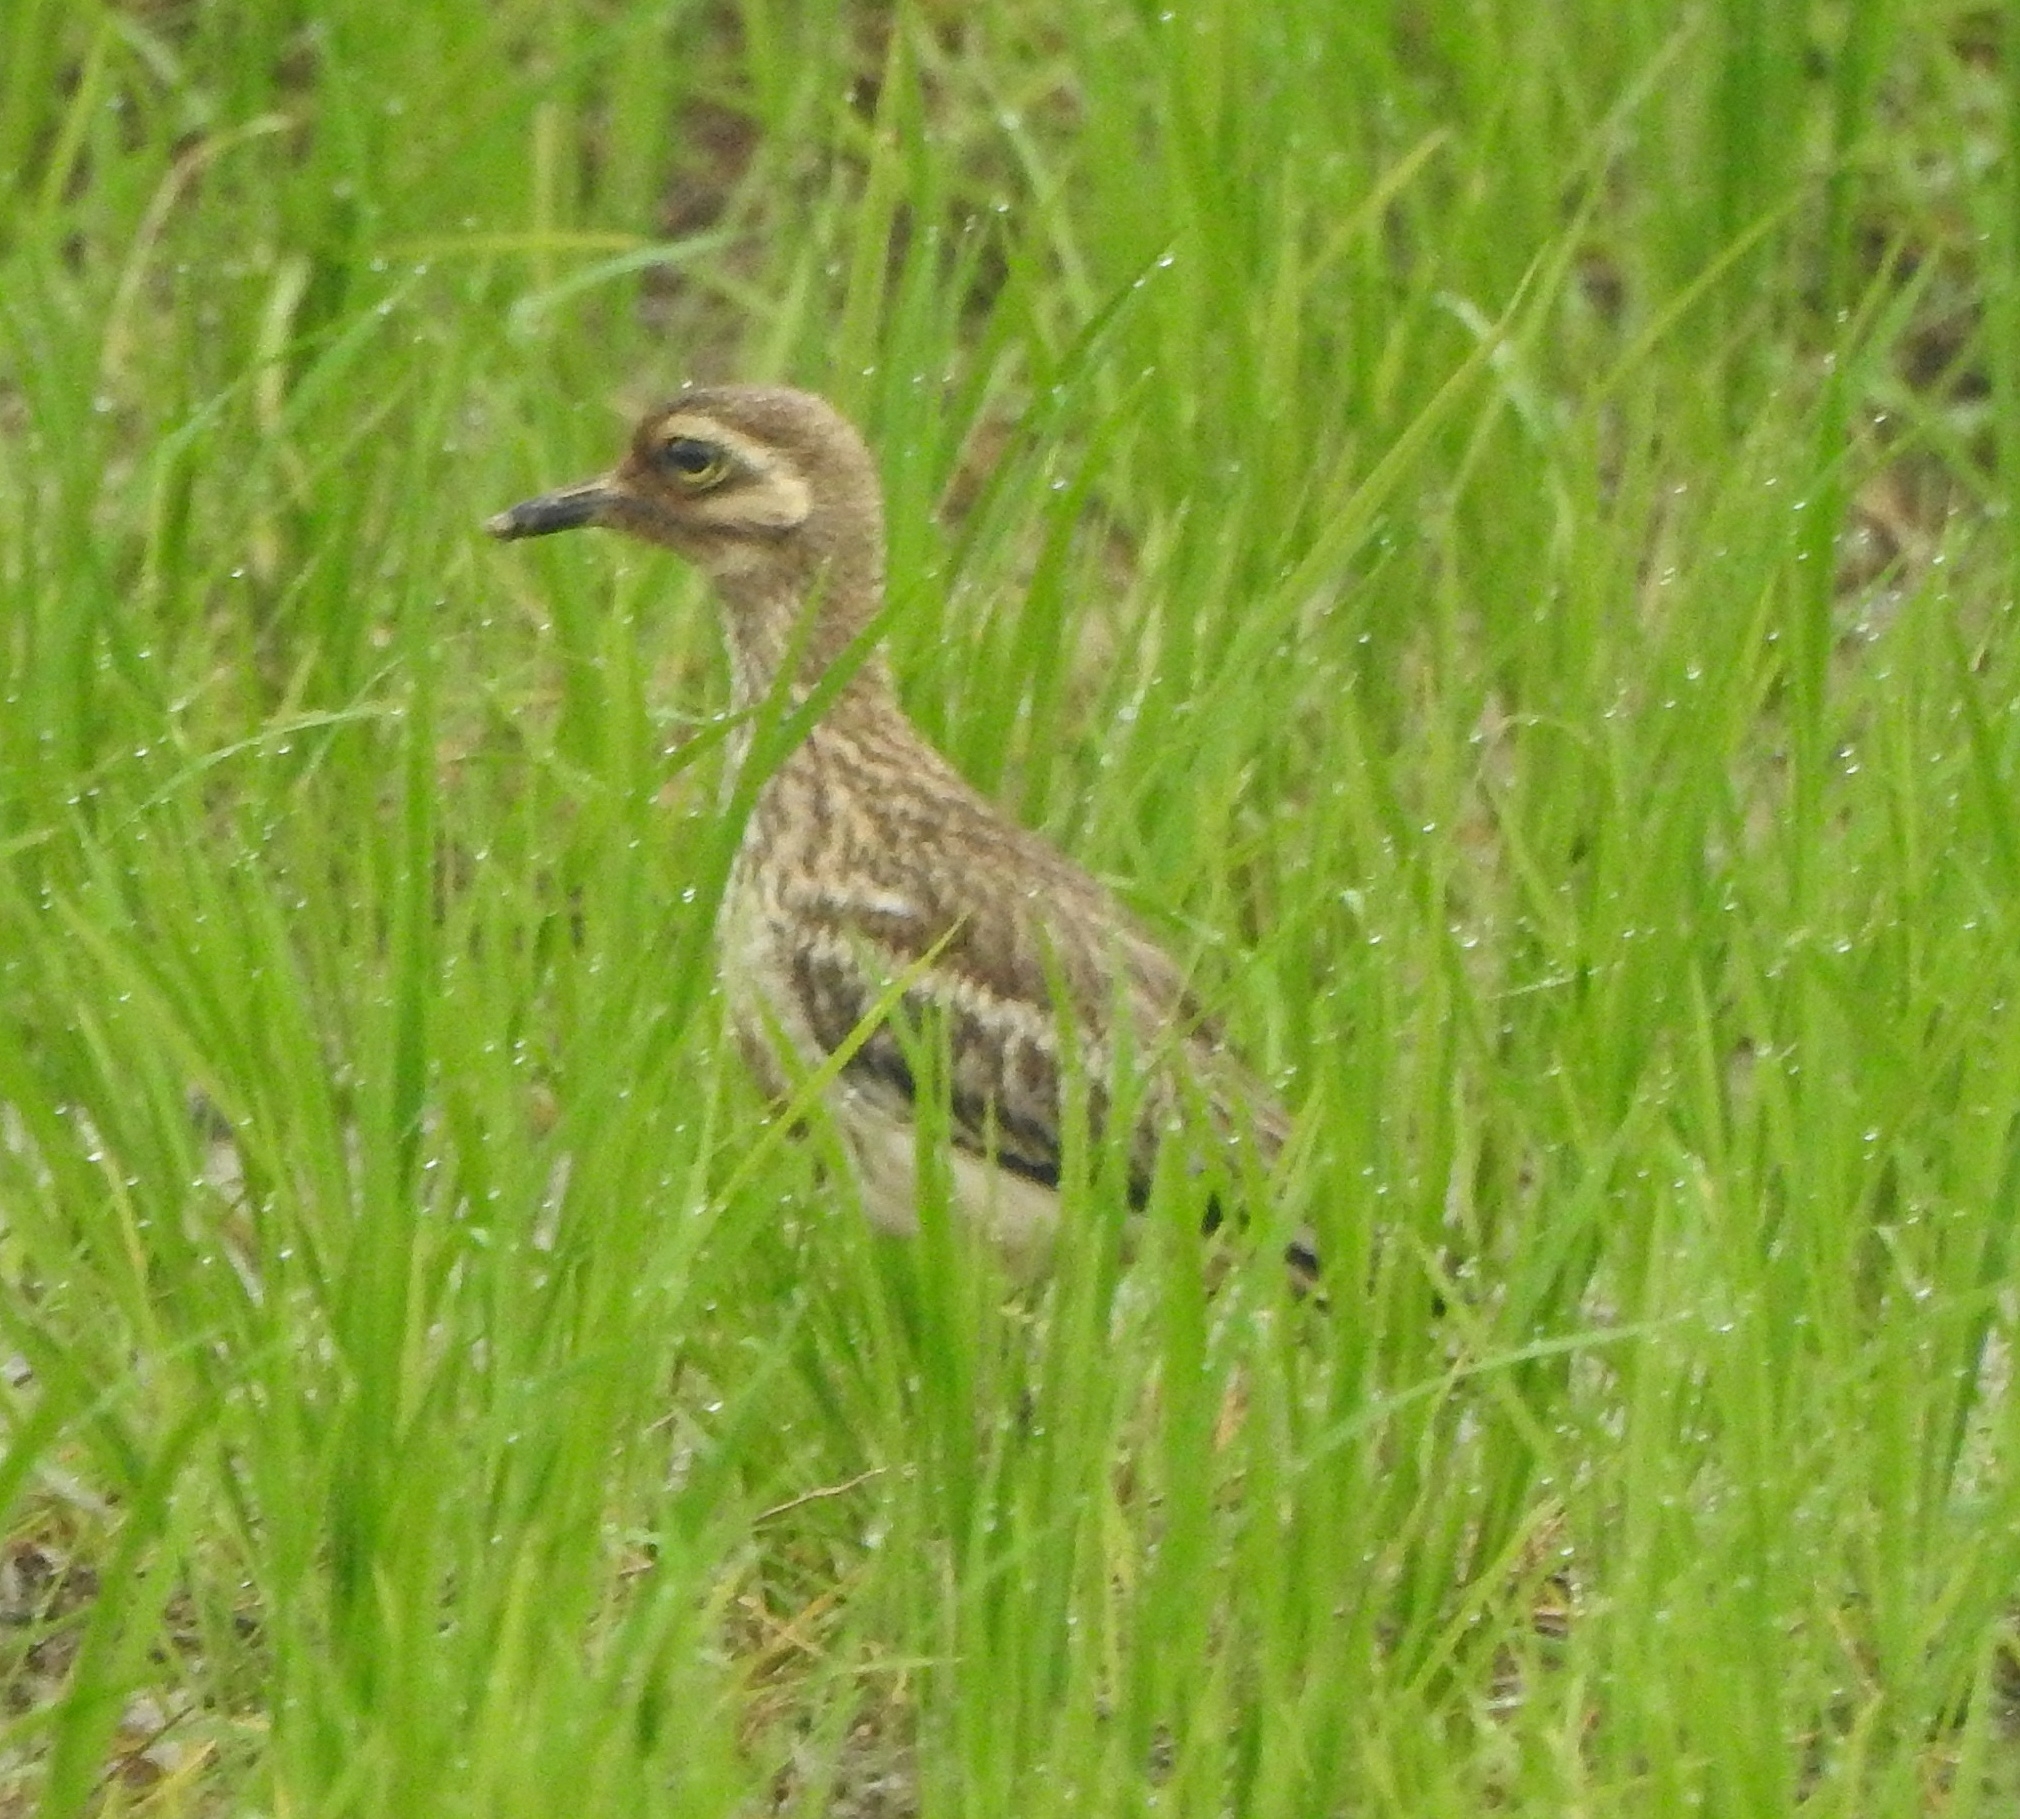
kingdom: Animalia
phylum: Chordata
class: Aves
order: Charadriiformes
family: Burhinidae
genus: Burhinus
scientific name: Burhinus indicus
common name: Indian thick-knee
